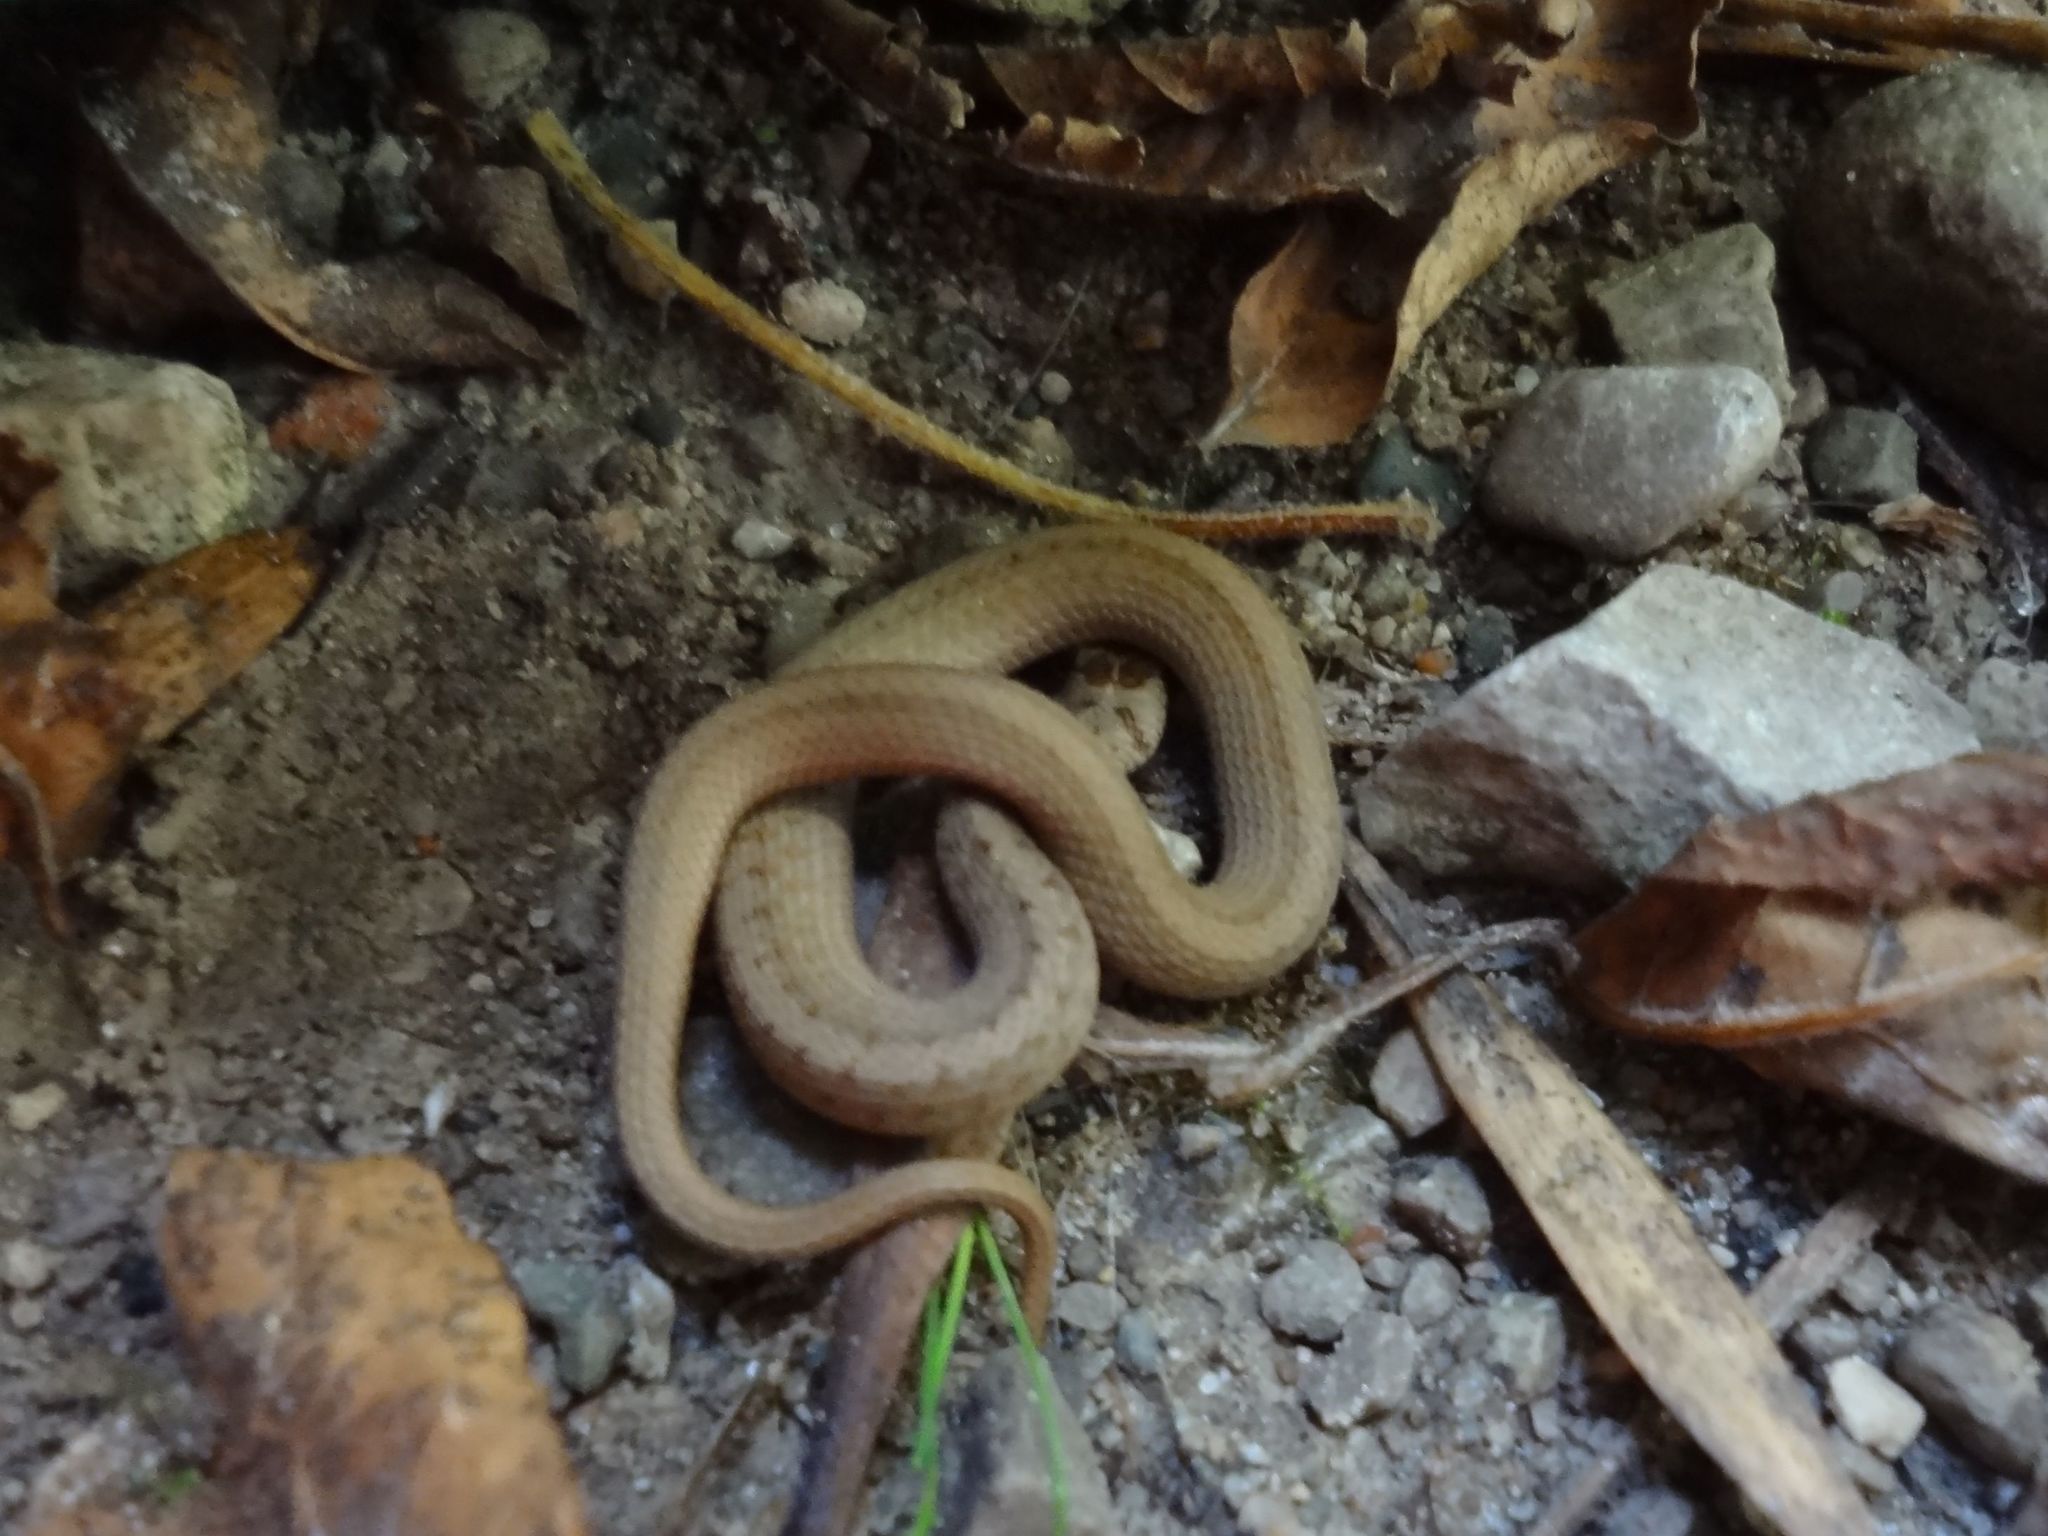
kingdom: Animalia
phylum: Chordata
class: Squamata
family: Colubridae
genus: Storeria
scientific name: Storeria dekayi
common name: (dekay’s) brown snake
